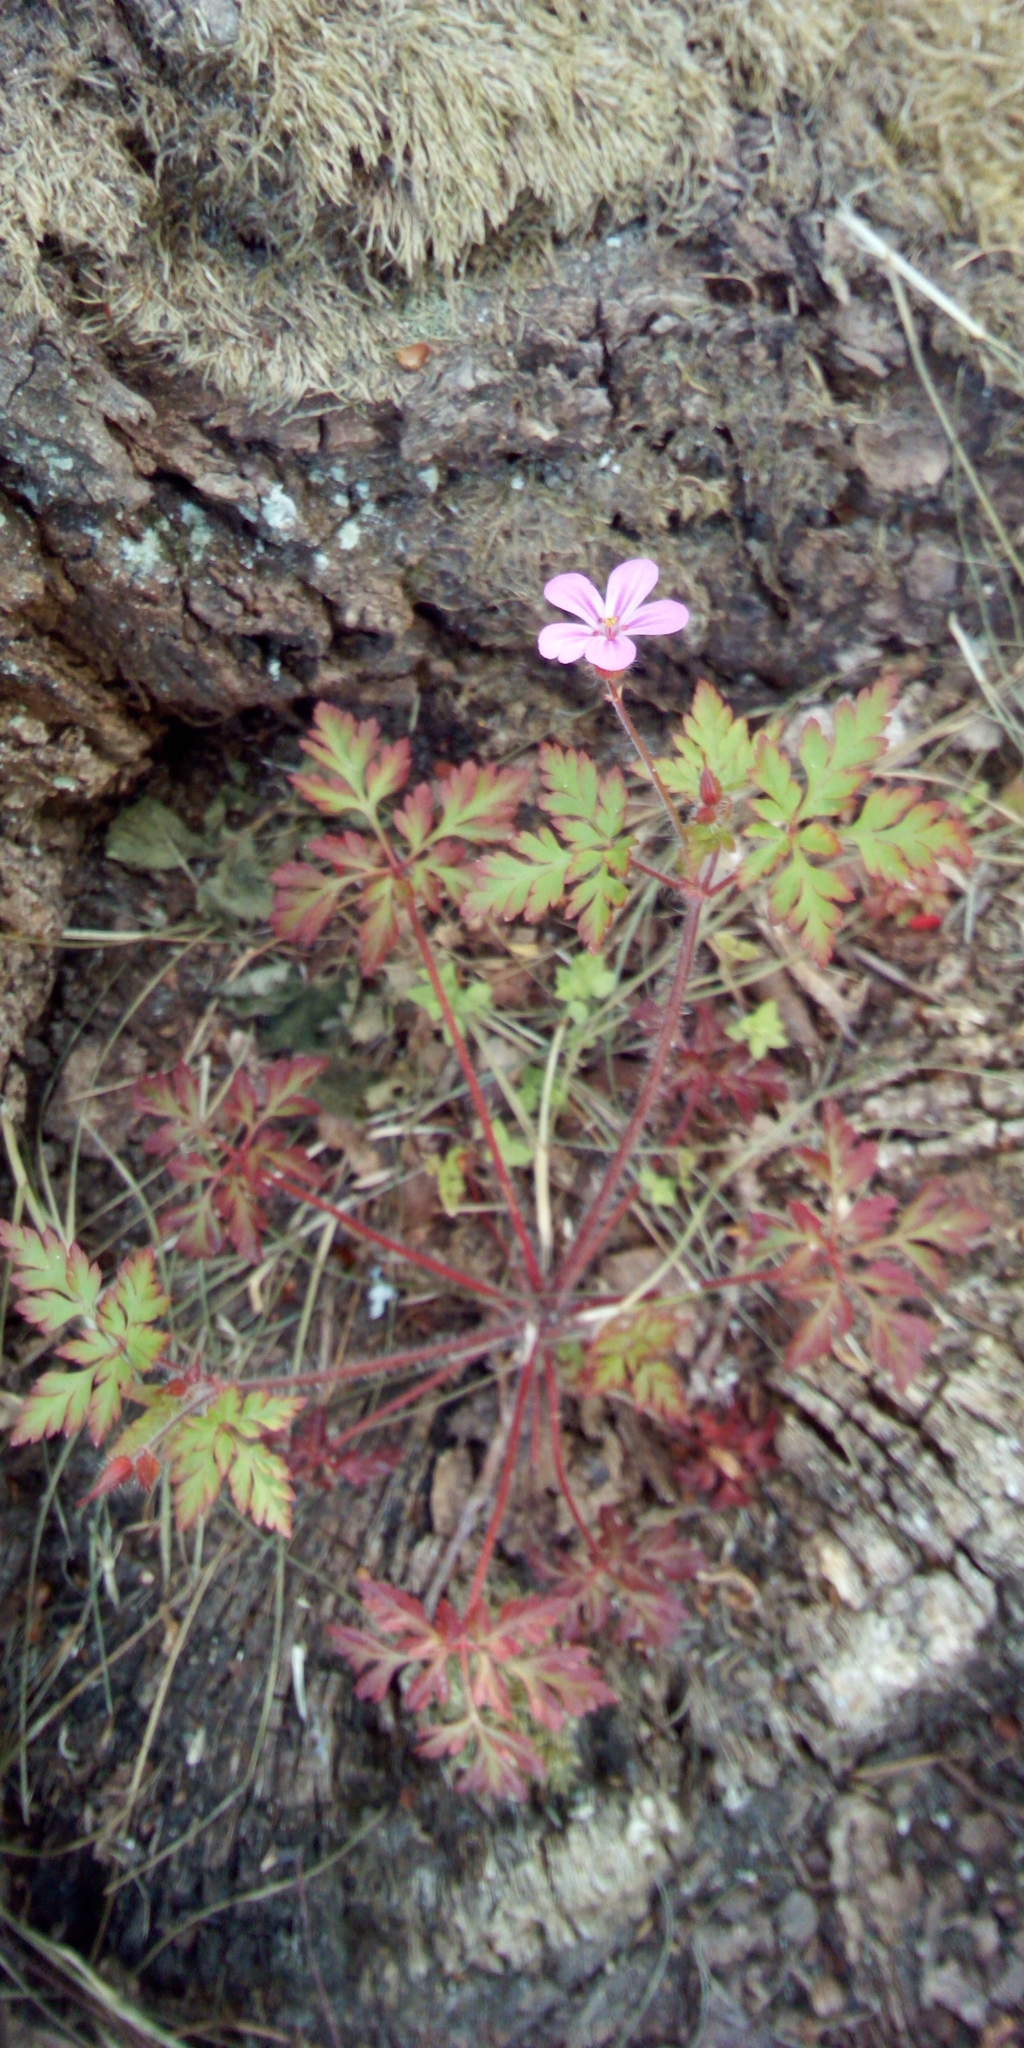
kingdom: Plantae
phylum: Tracheophyta
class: Magnoliopsida
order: Geraniales
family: Geraniaceae
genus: Geranium
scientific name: Geranium robertianum
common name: Herb-robert
